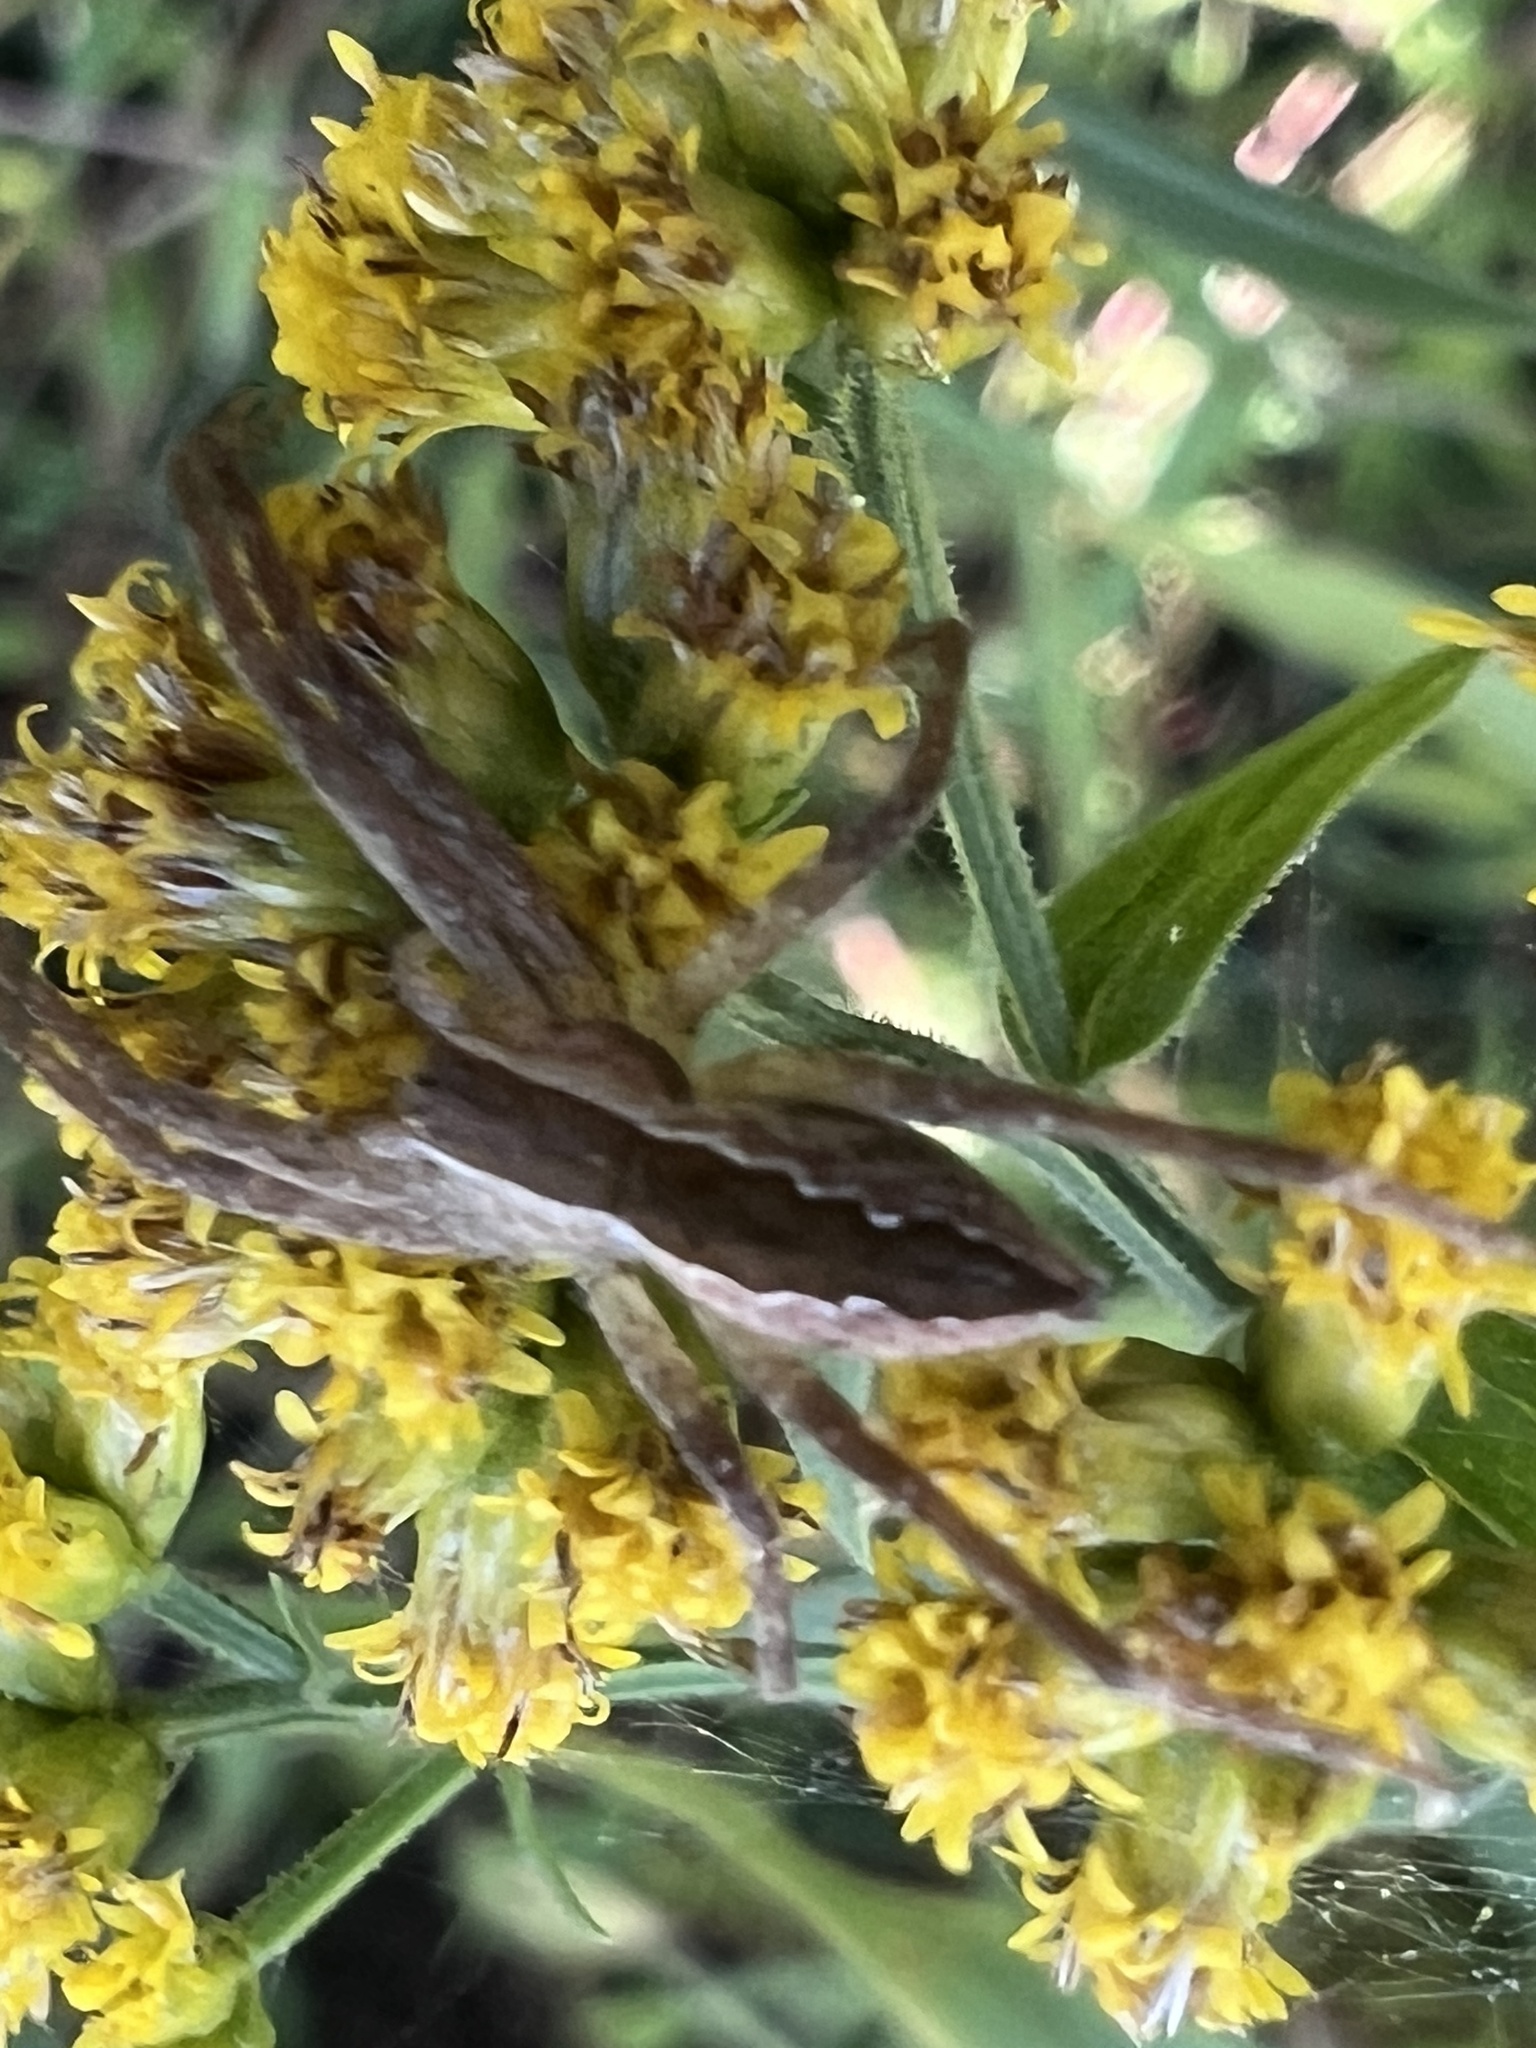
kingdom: Animalia
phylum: Arthropoda
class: Arachnida
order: Araneae
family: Pisauridae
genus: Pisaurina
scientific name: Pisaurina mira
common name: American nursery web spider
